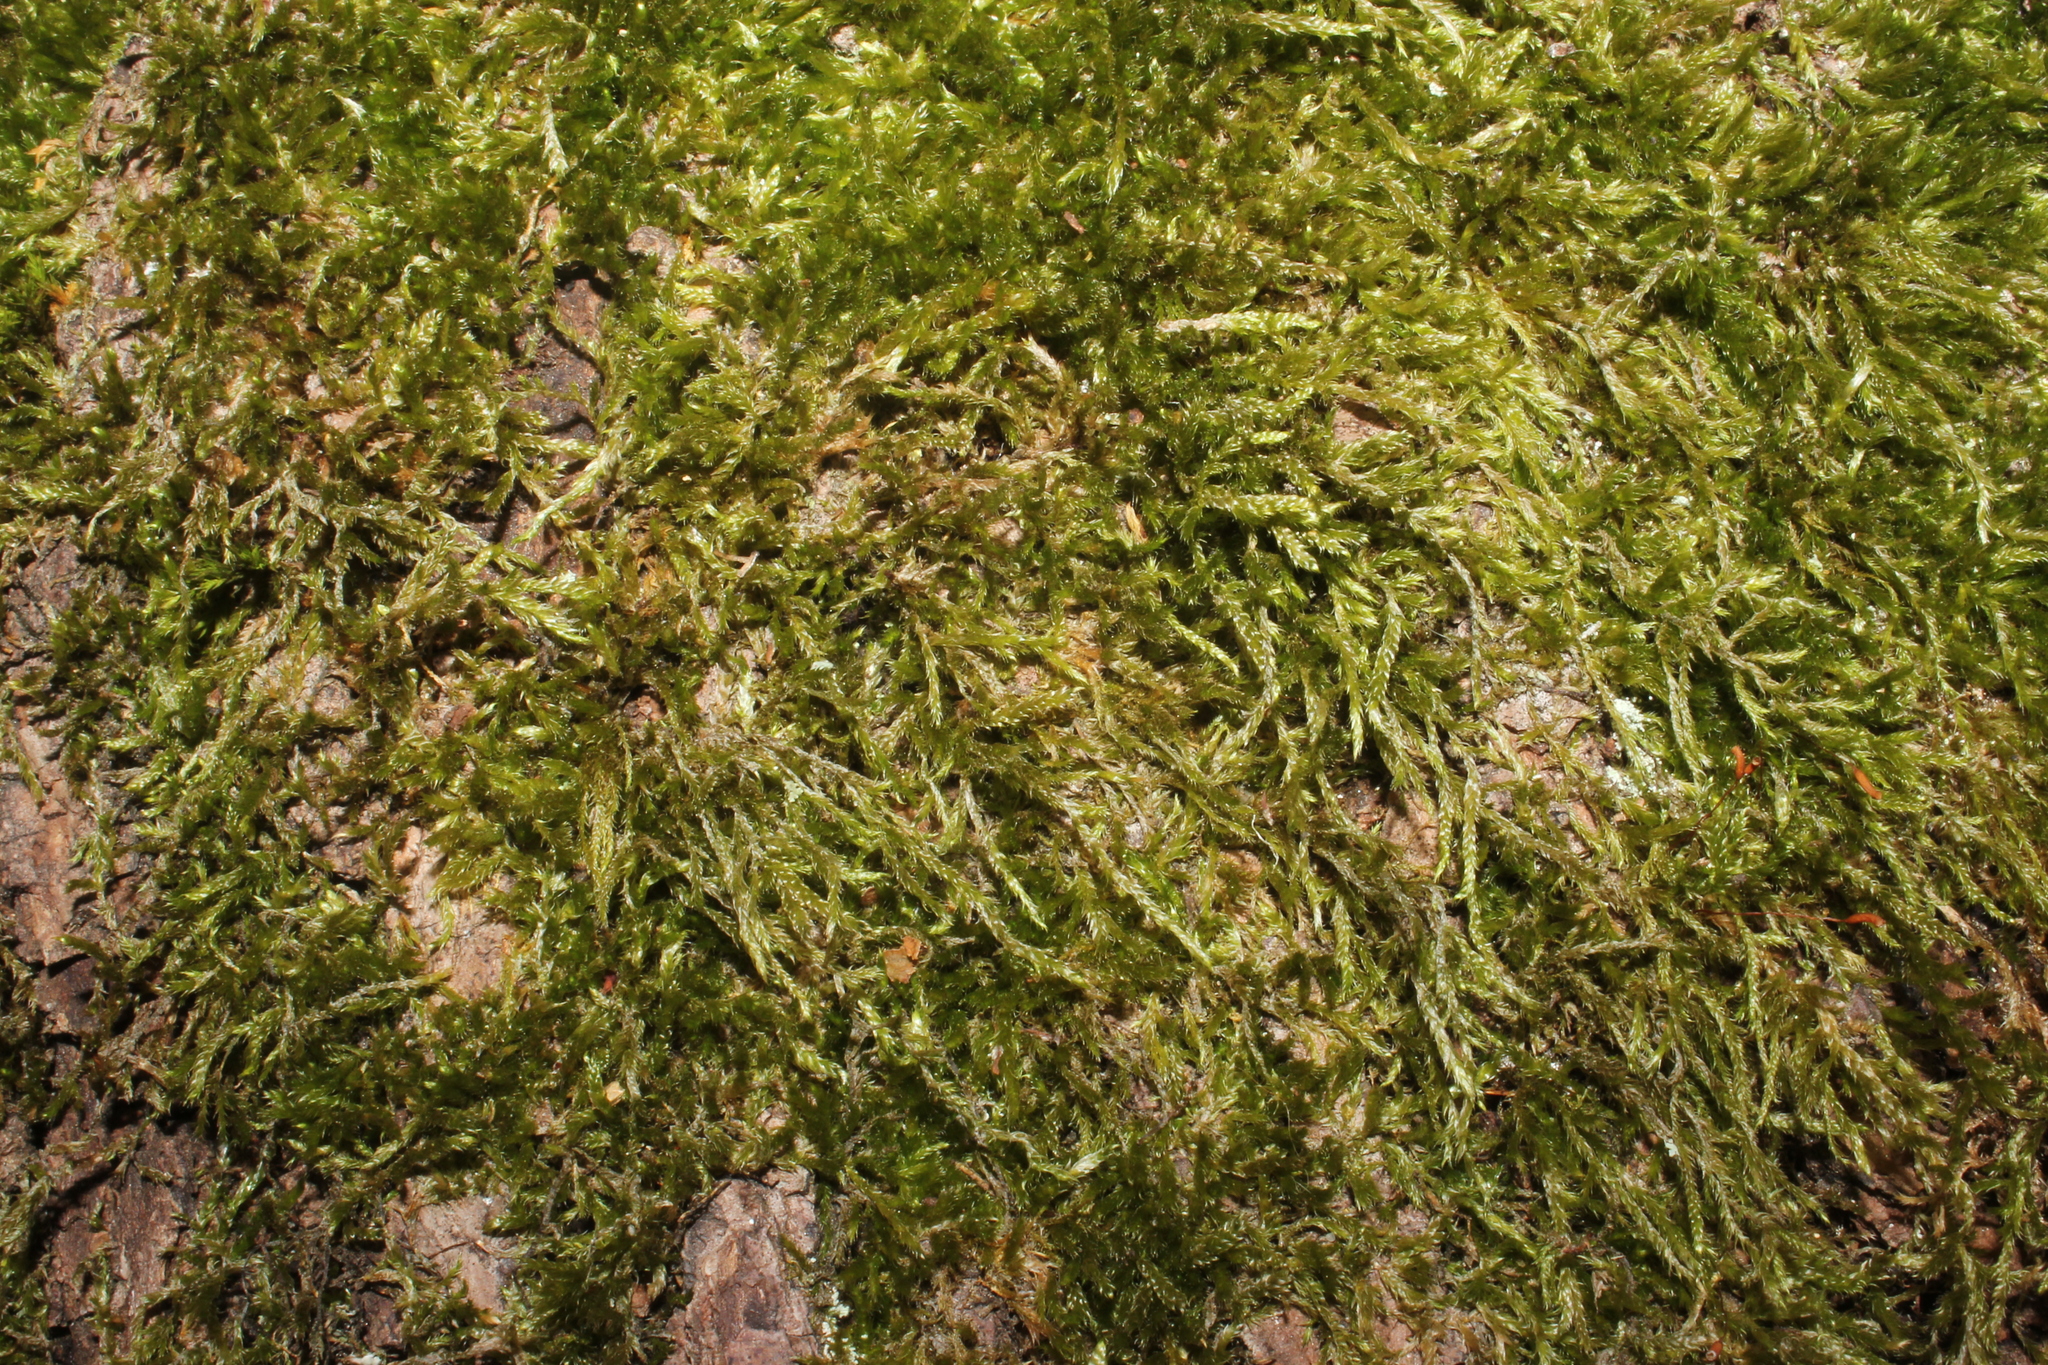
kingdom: Plantae
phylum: Bryophyta
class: Bryopsida
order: Hypnales
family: Hypnaceae
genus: Hypnum
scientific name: Hypnum cupressiforme
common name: Cypress-leaved plait-moss
